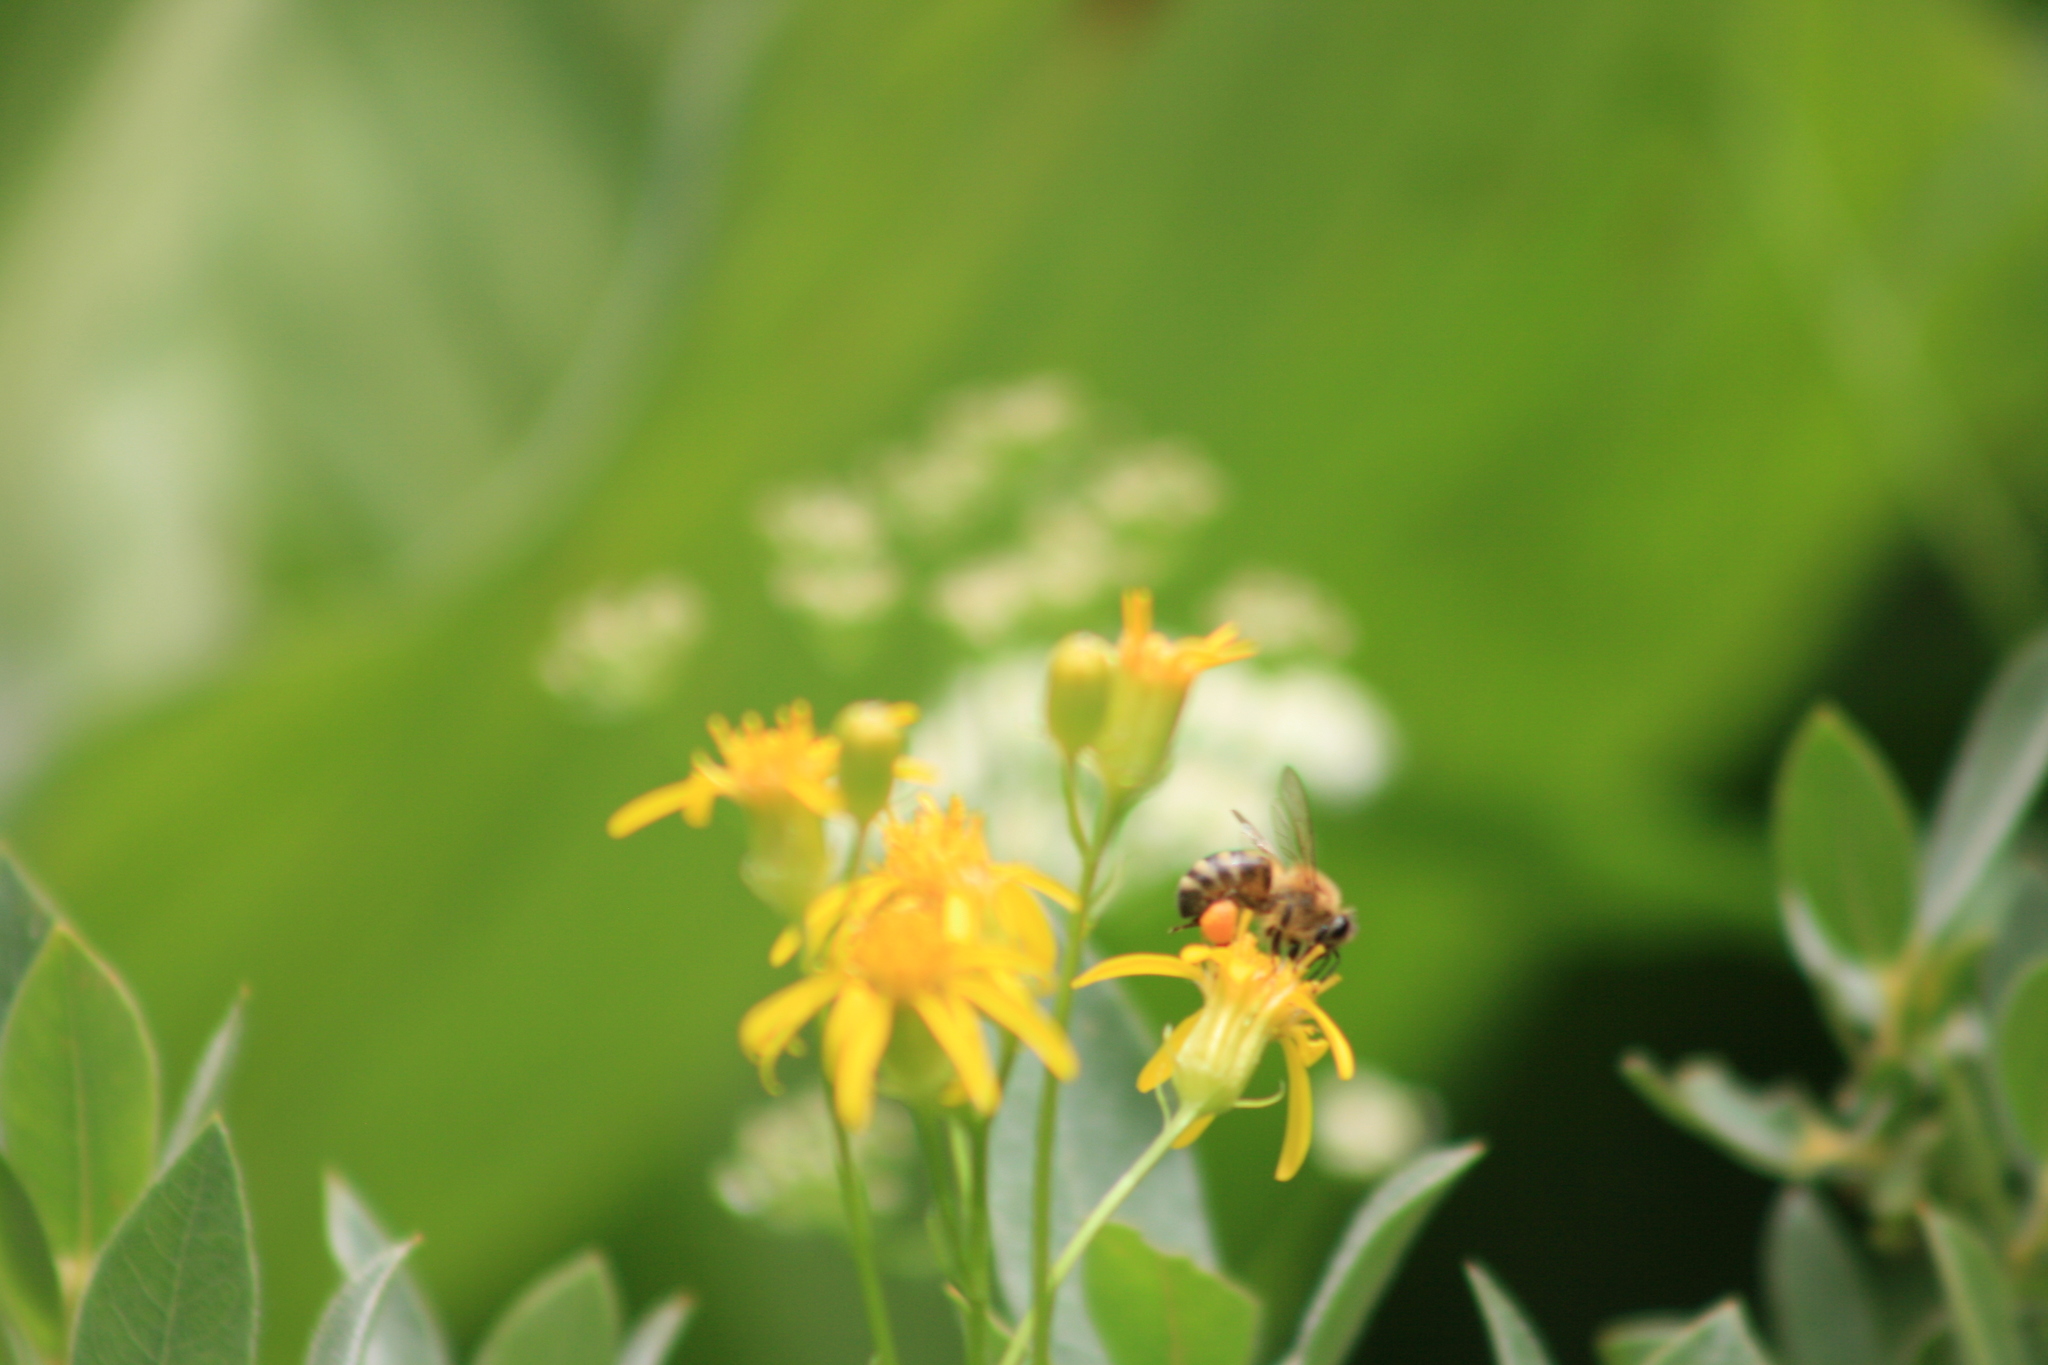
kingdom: Animalia
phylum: Arthropoda
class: Insecta
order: Hymenoptera
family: Apidae
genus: Apis
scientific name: Apis mellifera
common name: Honey bee
